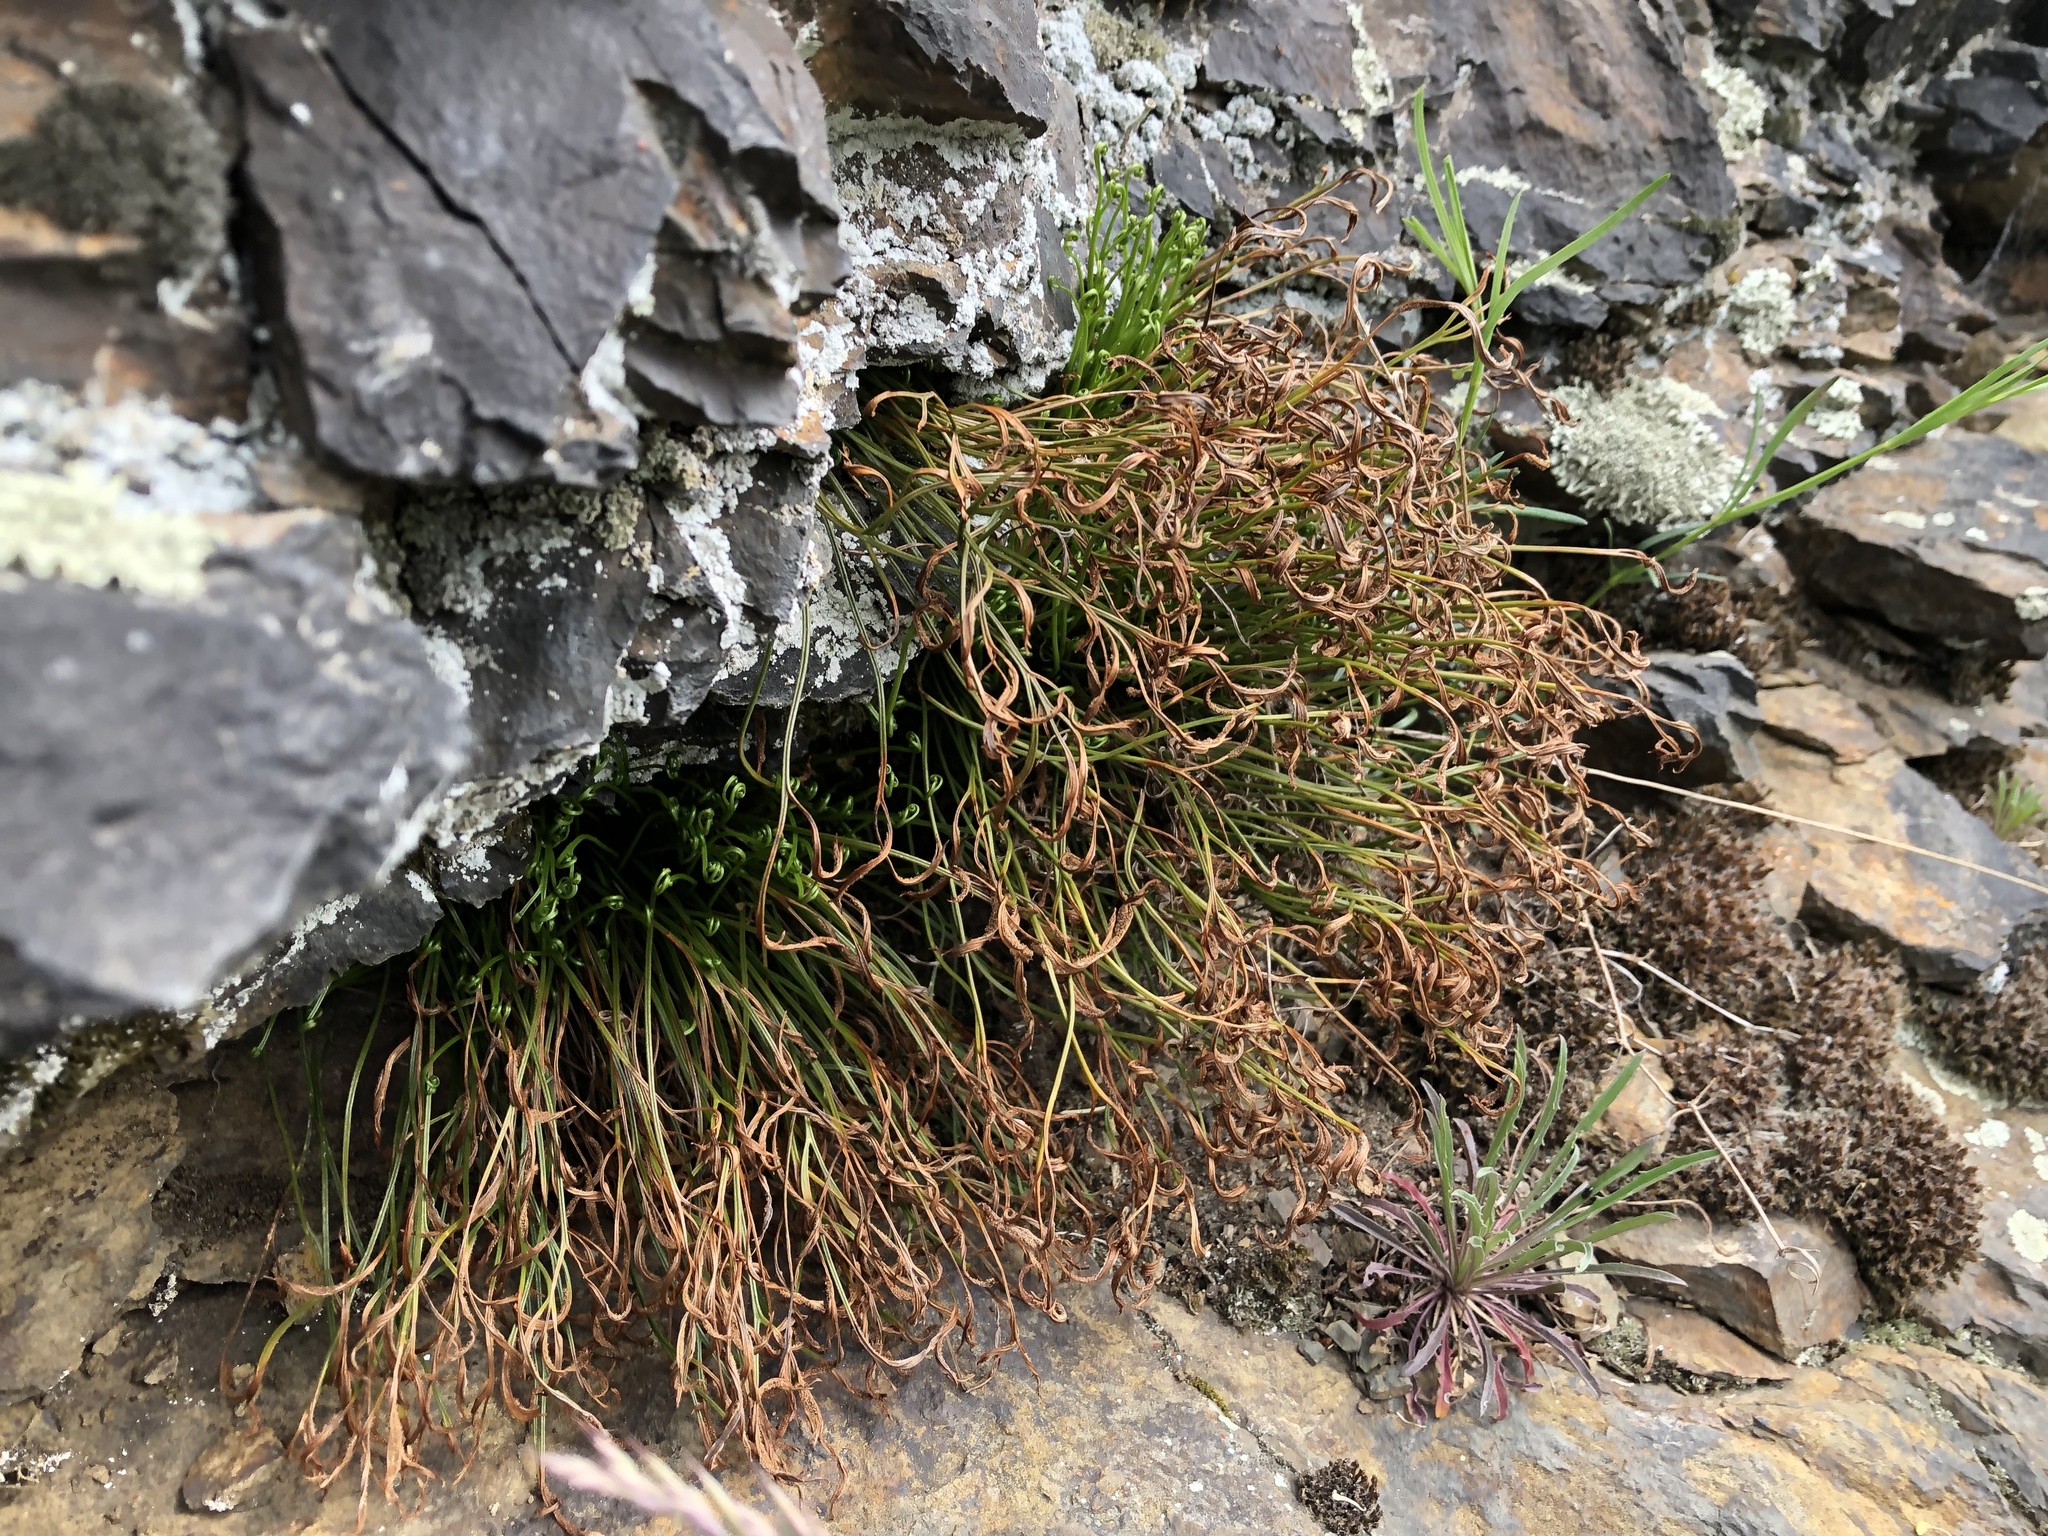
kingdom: Plantae
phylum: Tracheophyta
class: Polypodiopsida
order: Polypodiales
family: Aspleniaceae
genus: Asplenium
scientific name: Asplenium septentrionale
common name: Forked spleenwort
